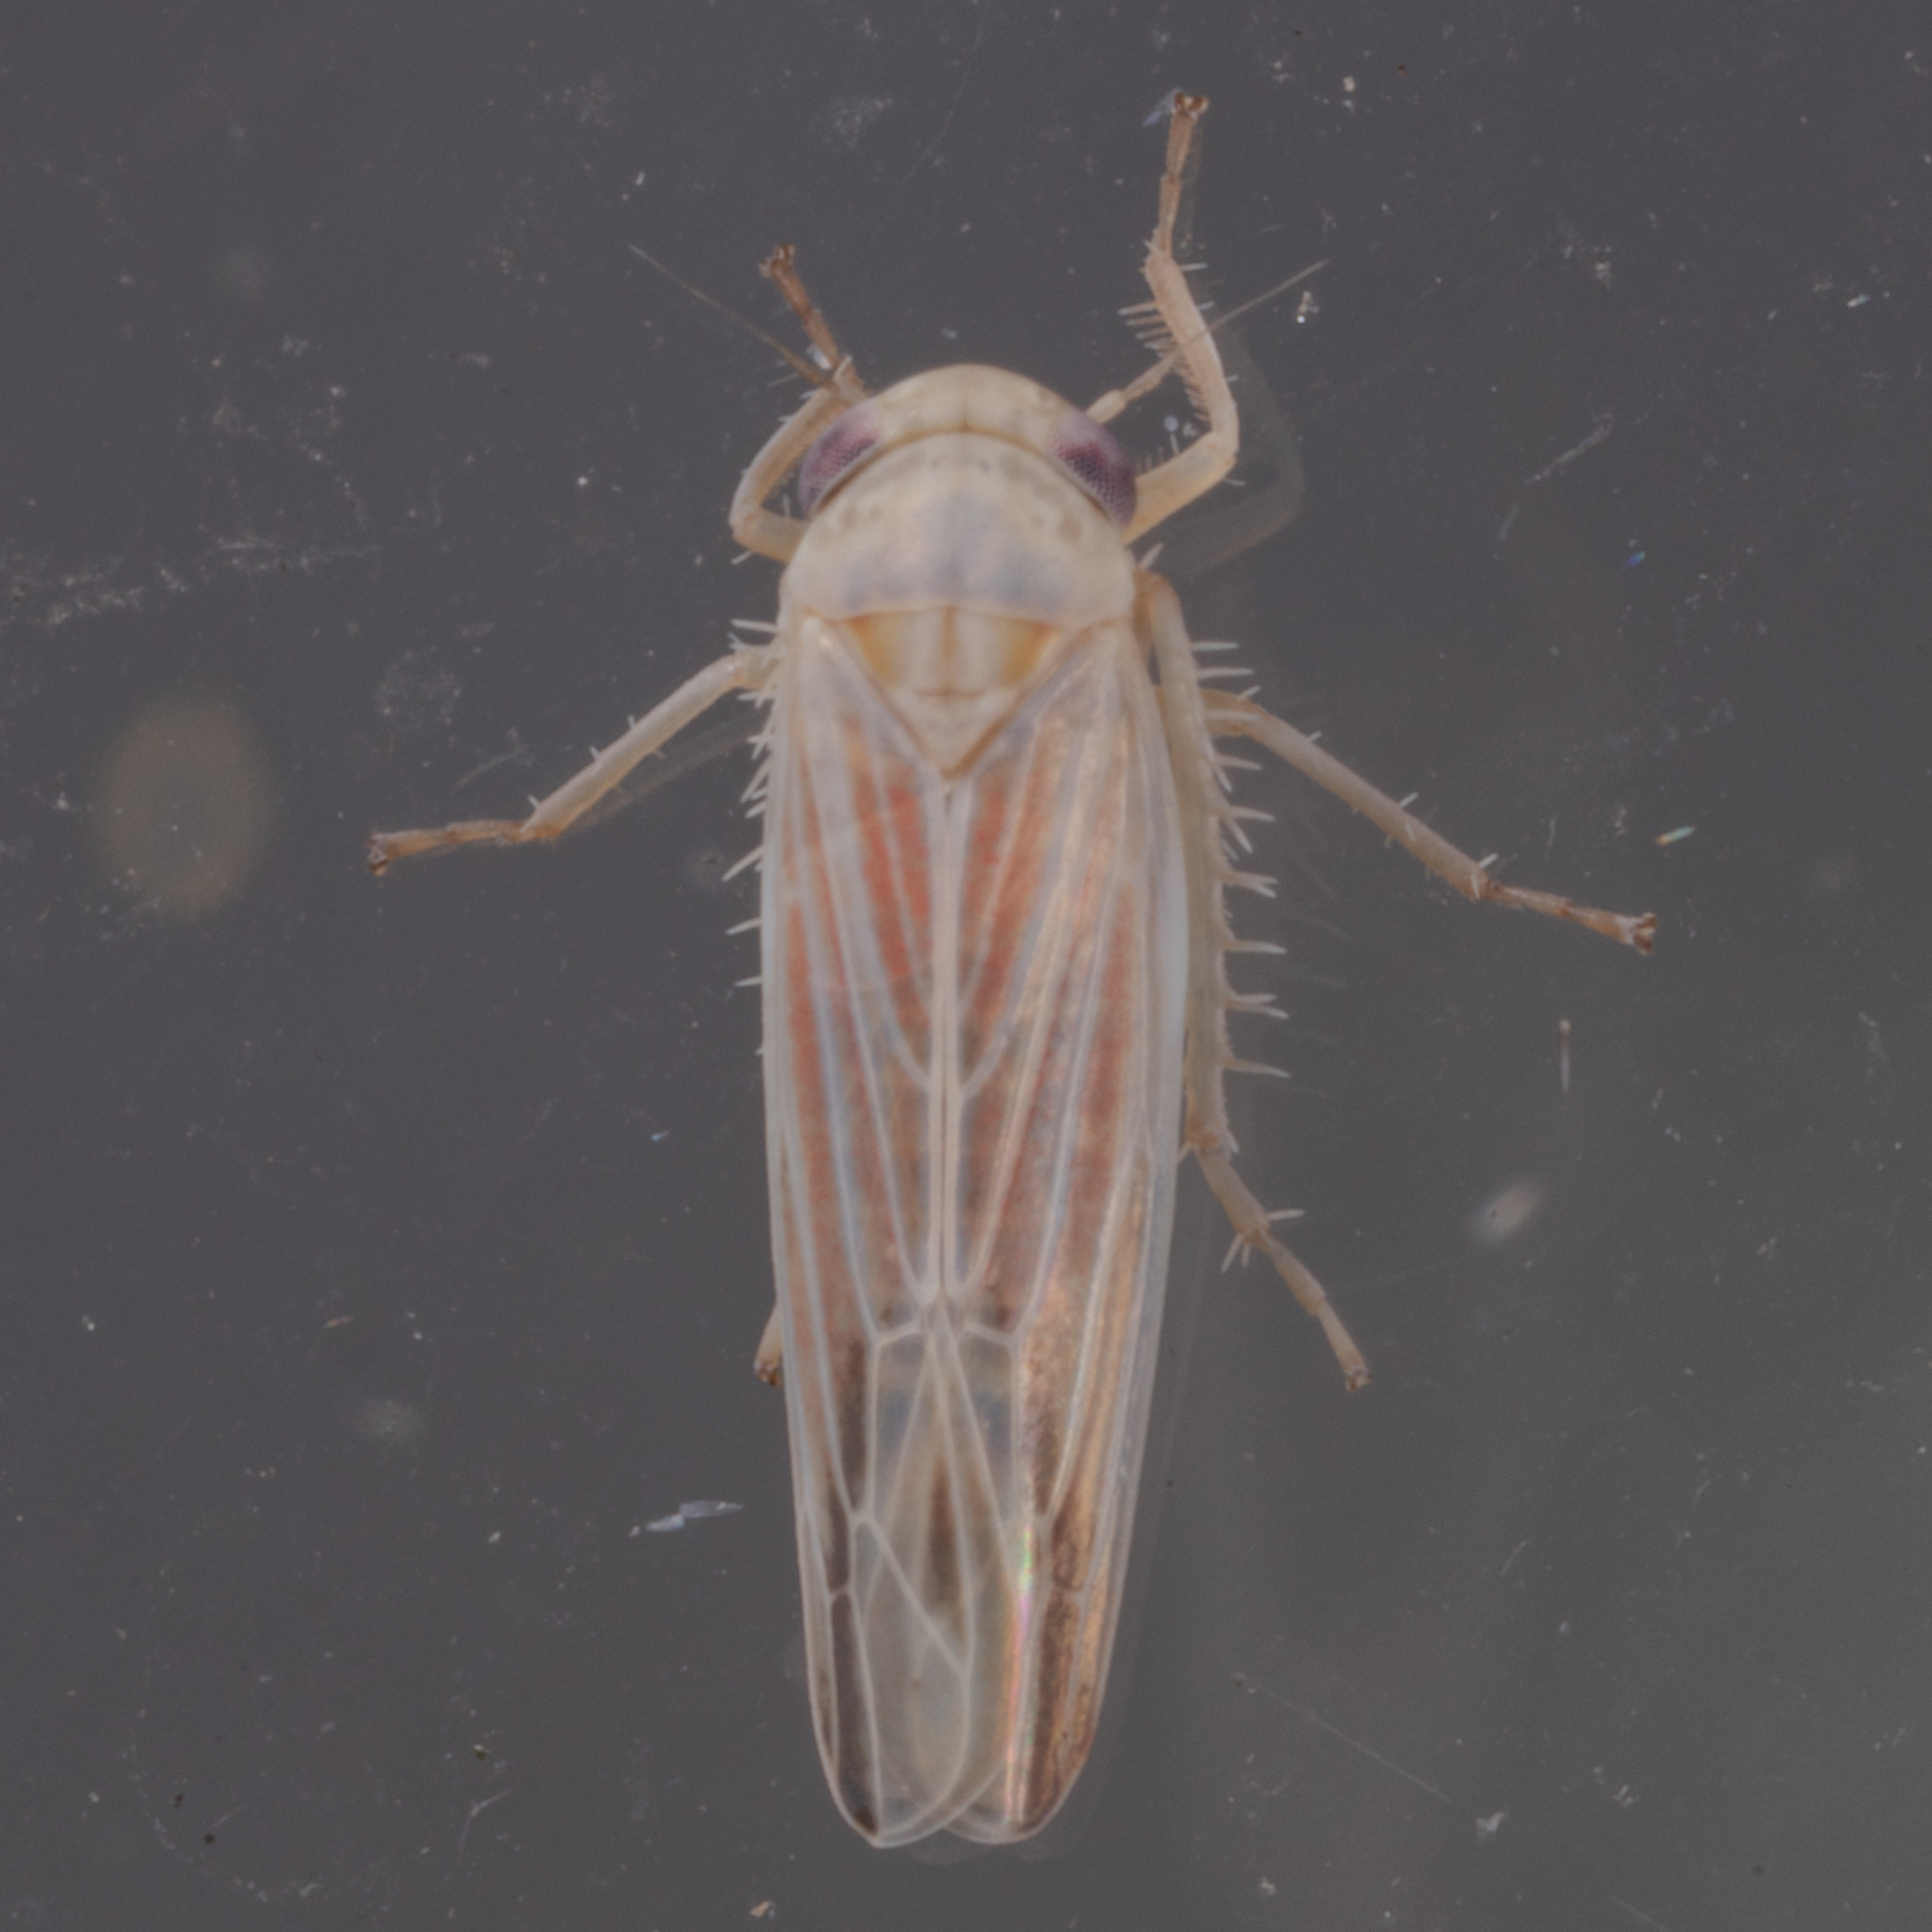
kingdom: Animalia
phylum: Arthropoda
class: Insecta
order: Hemiptera
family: Cicadellidae
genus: Balclutha
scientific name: Balclutha rubrostriata
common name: Red-streaked leafhopper
